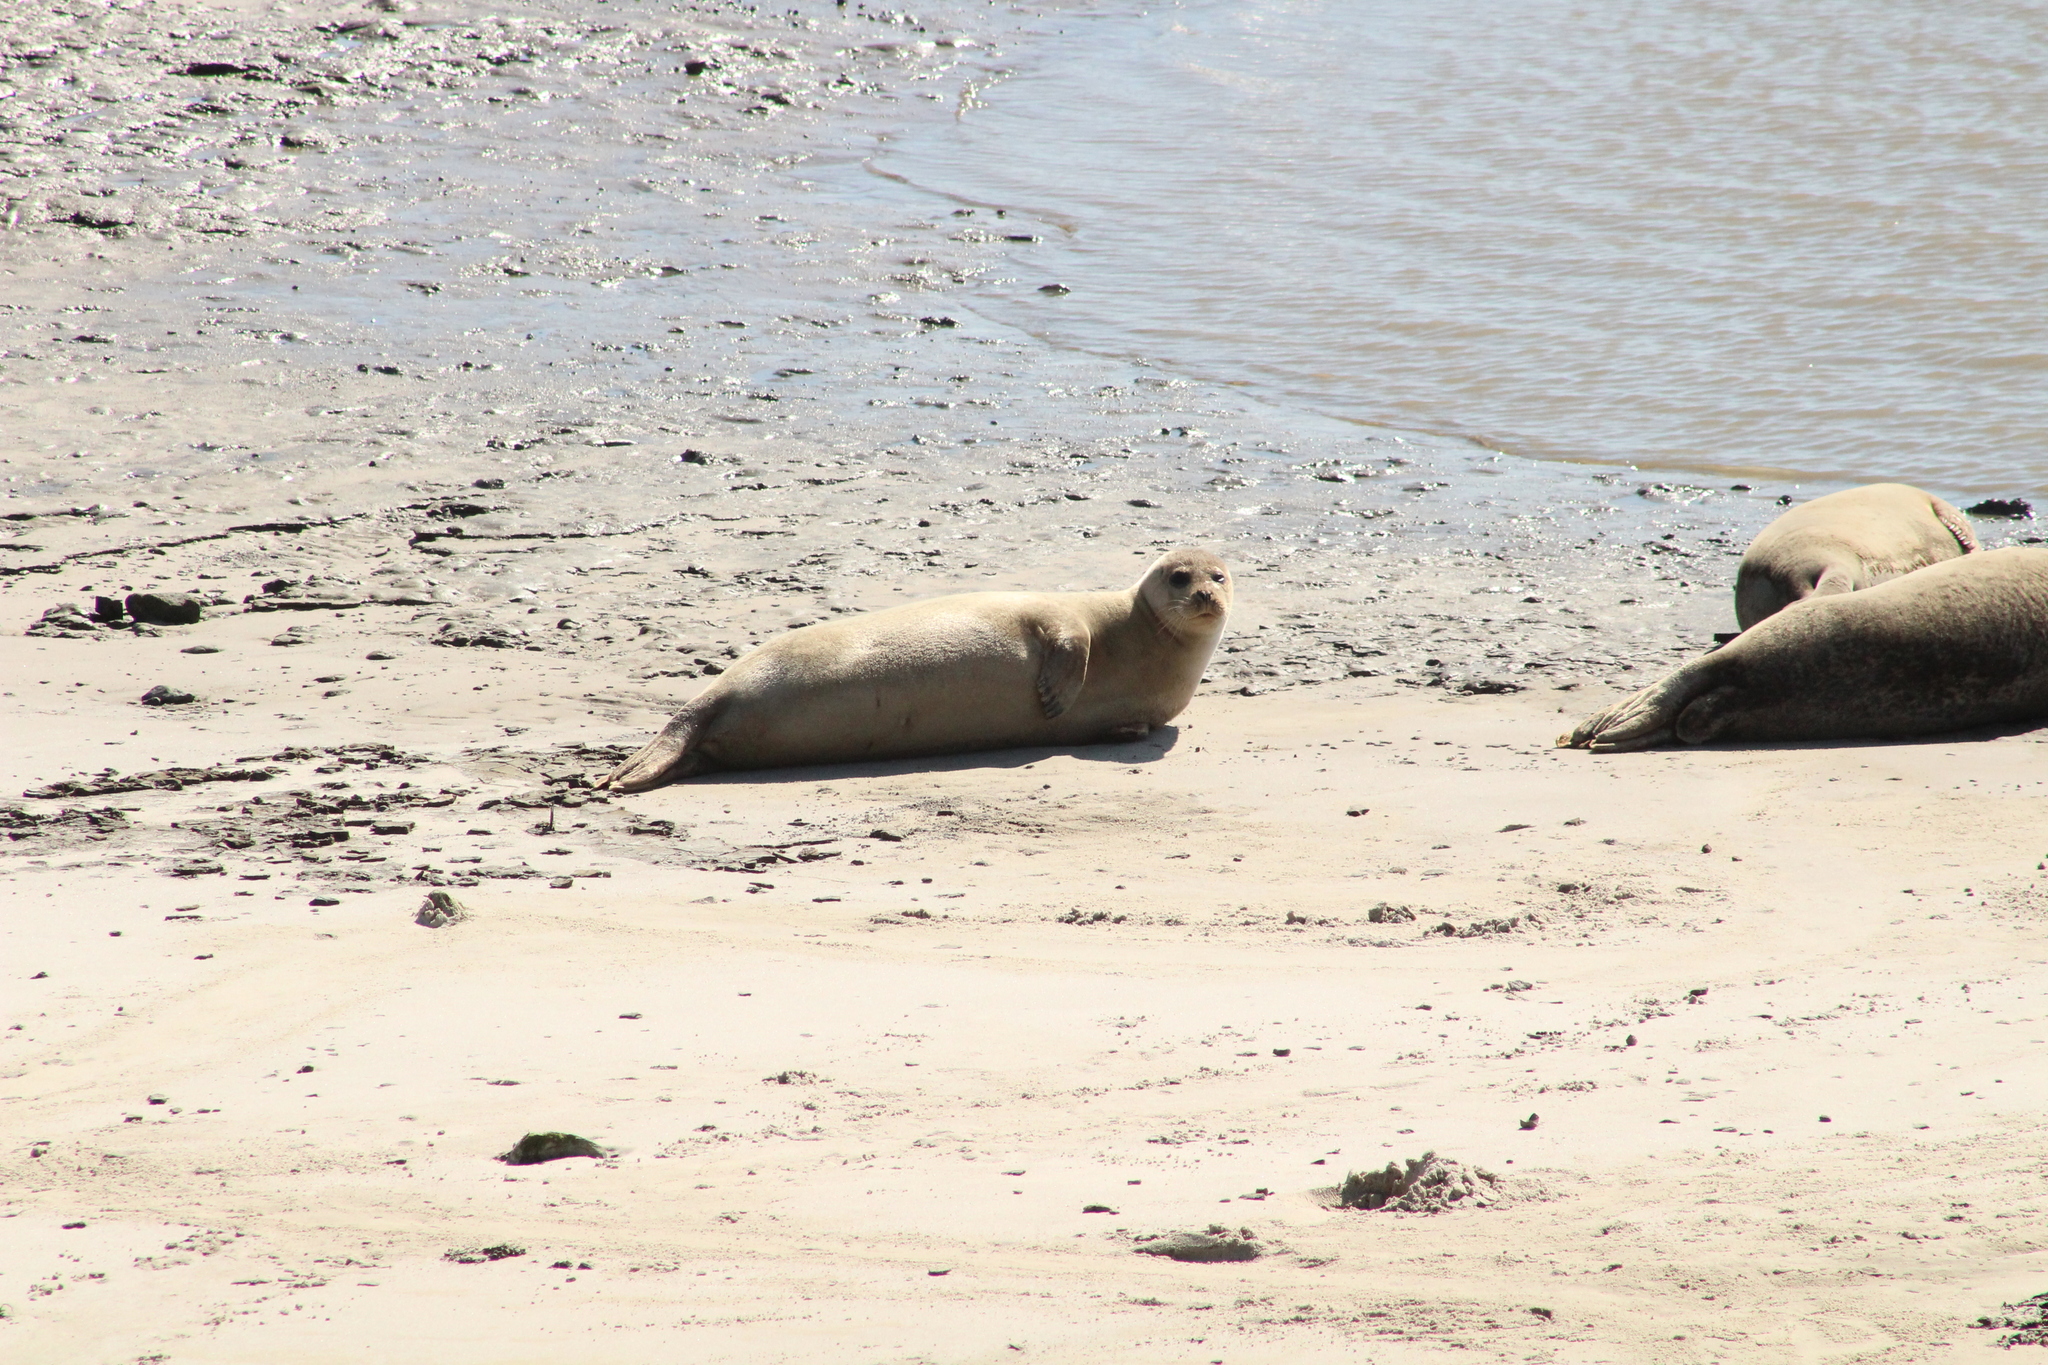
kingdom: Animalia
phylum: Chordata
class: Mammalia
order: Carnivora
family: Phocidae
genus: Phoca
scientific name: Phoca vitulina
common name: Harbor seal
